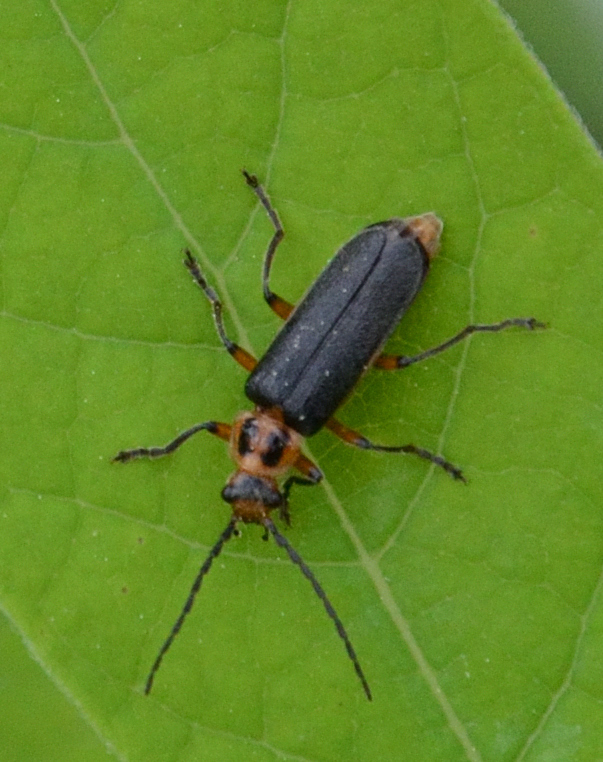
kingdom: Animalia
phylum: Arthropoda
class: Insecta
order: Coleoptera
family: Cantharidae
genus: Atalantycha
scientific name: Atalantycha bilineata
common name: Two-lined leatherwing
